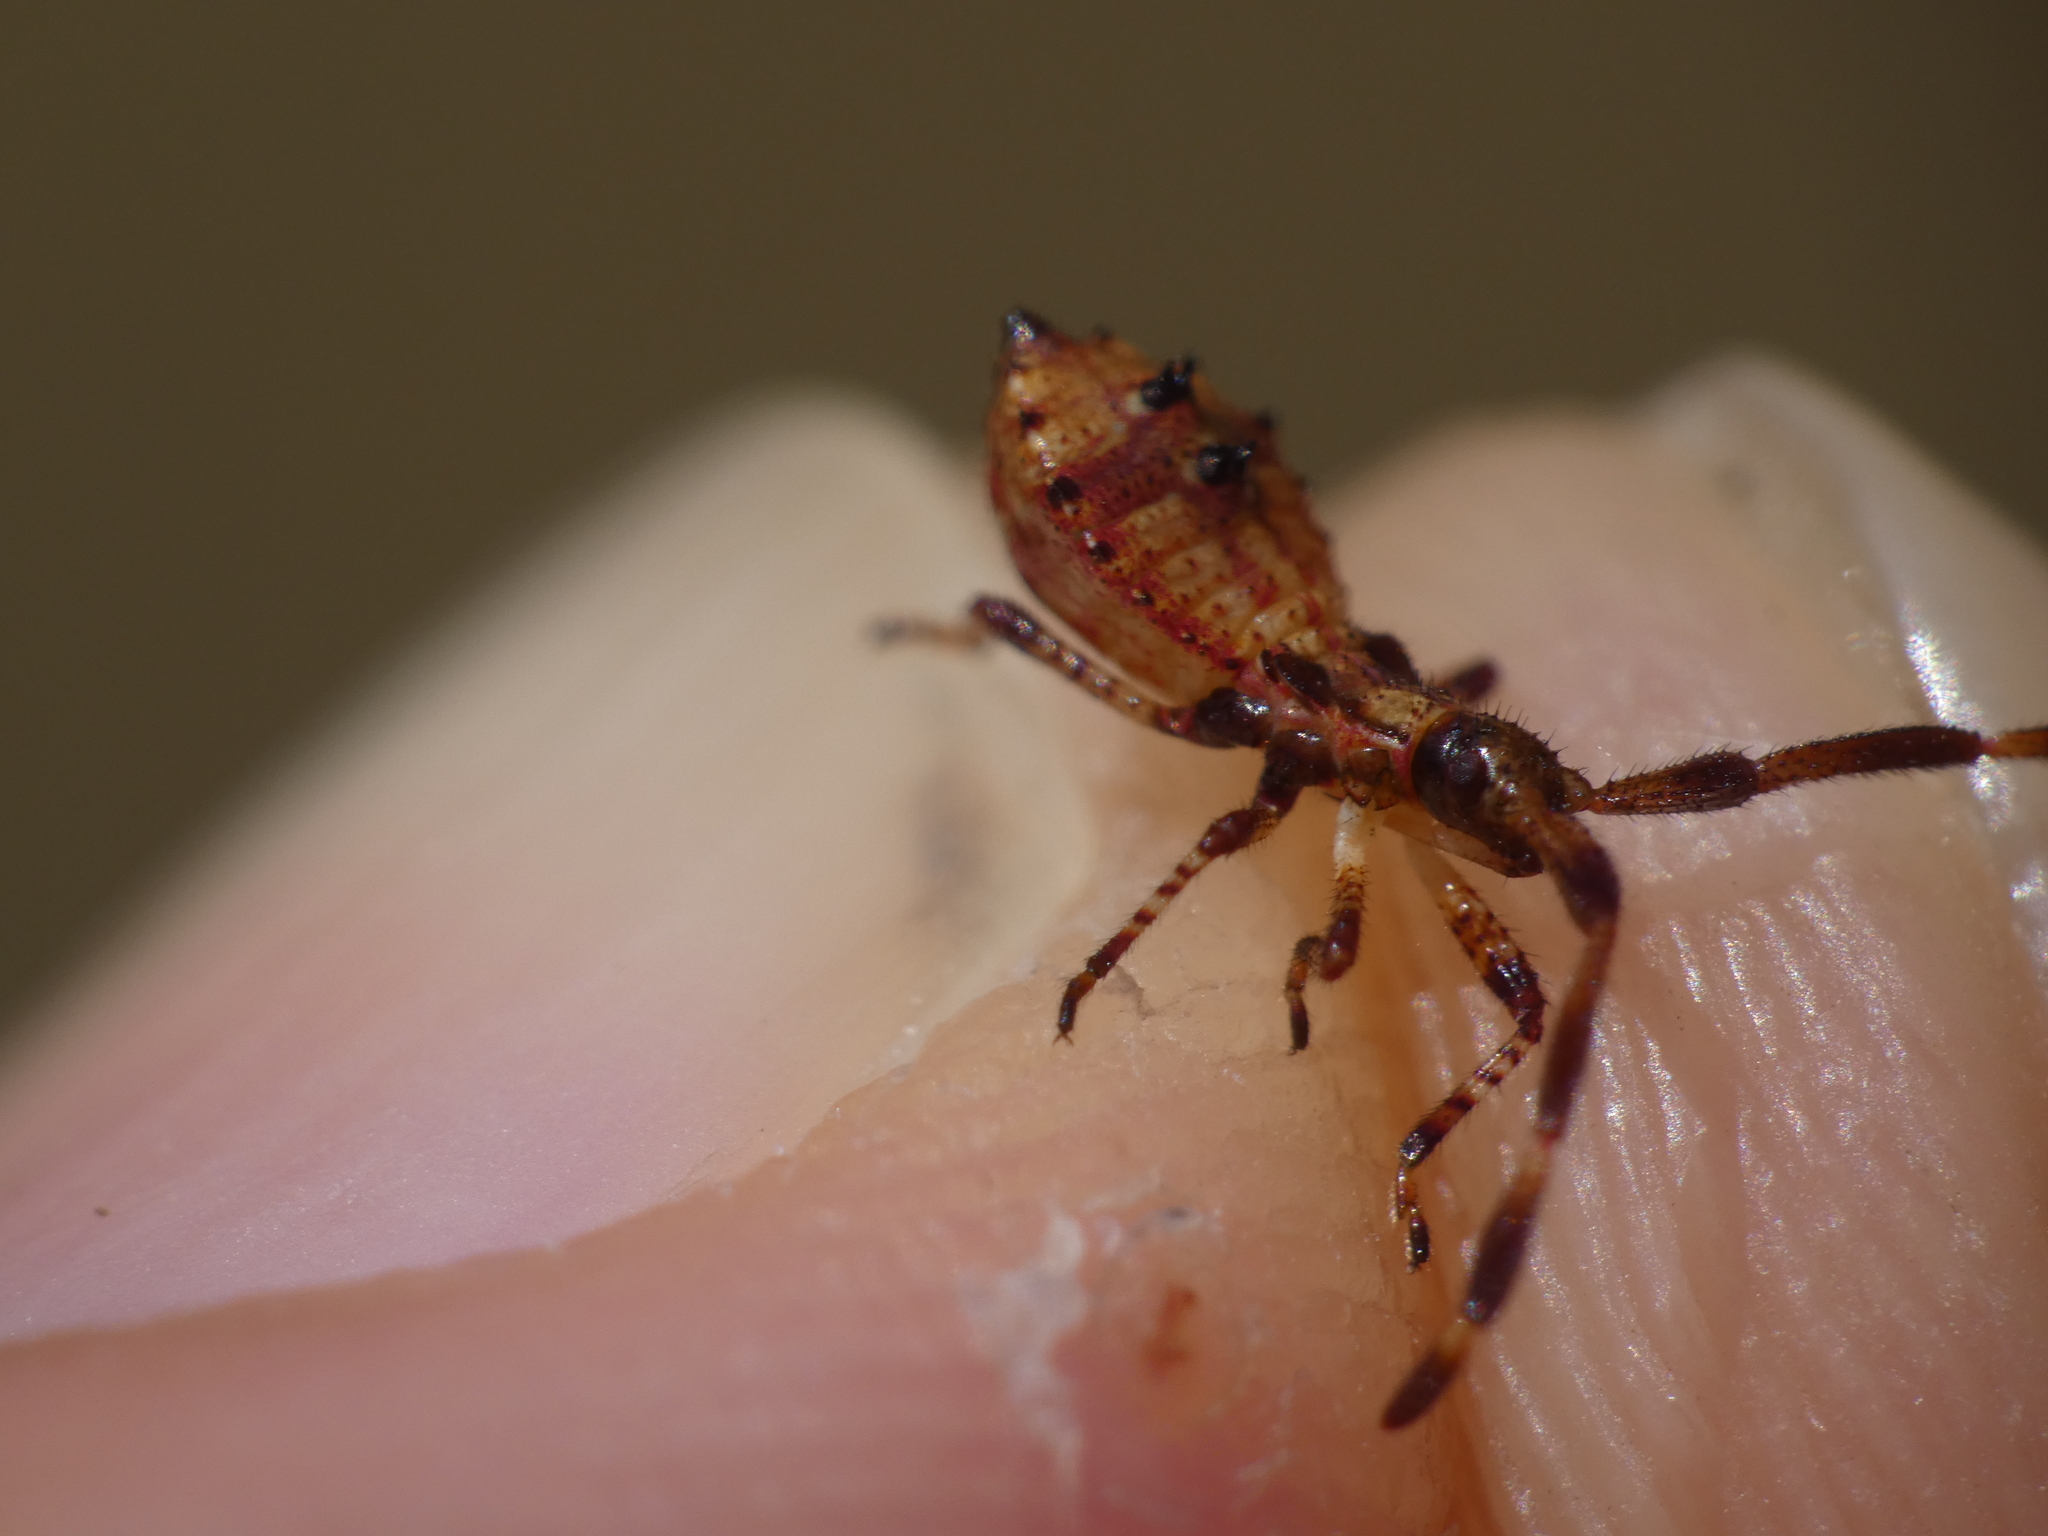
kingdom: Animalia
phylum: Arthropoda
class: Insecta
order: Hemiptera
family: Coreidae
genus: Coreus
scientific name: Coreus marginatus
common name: Dock bug
